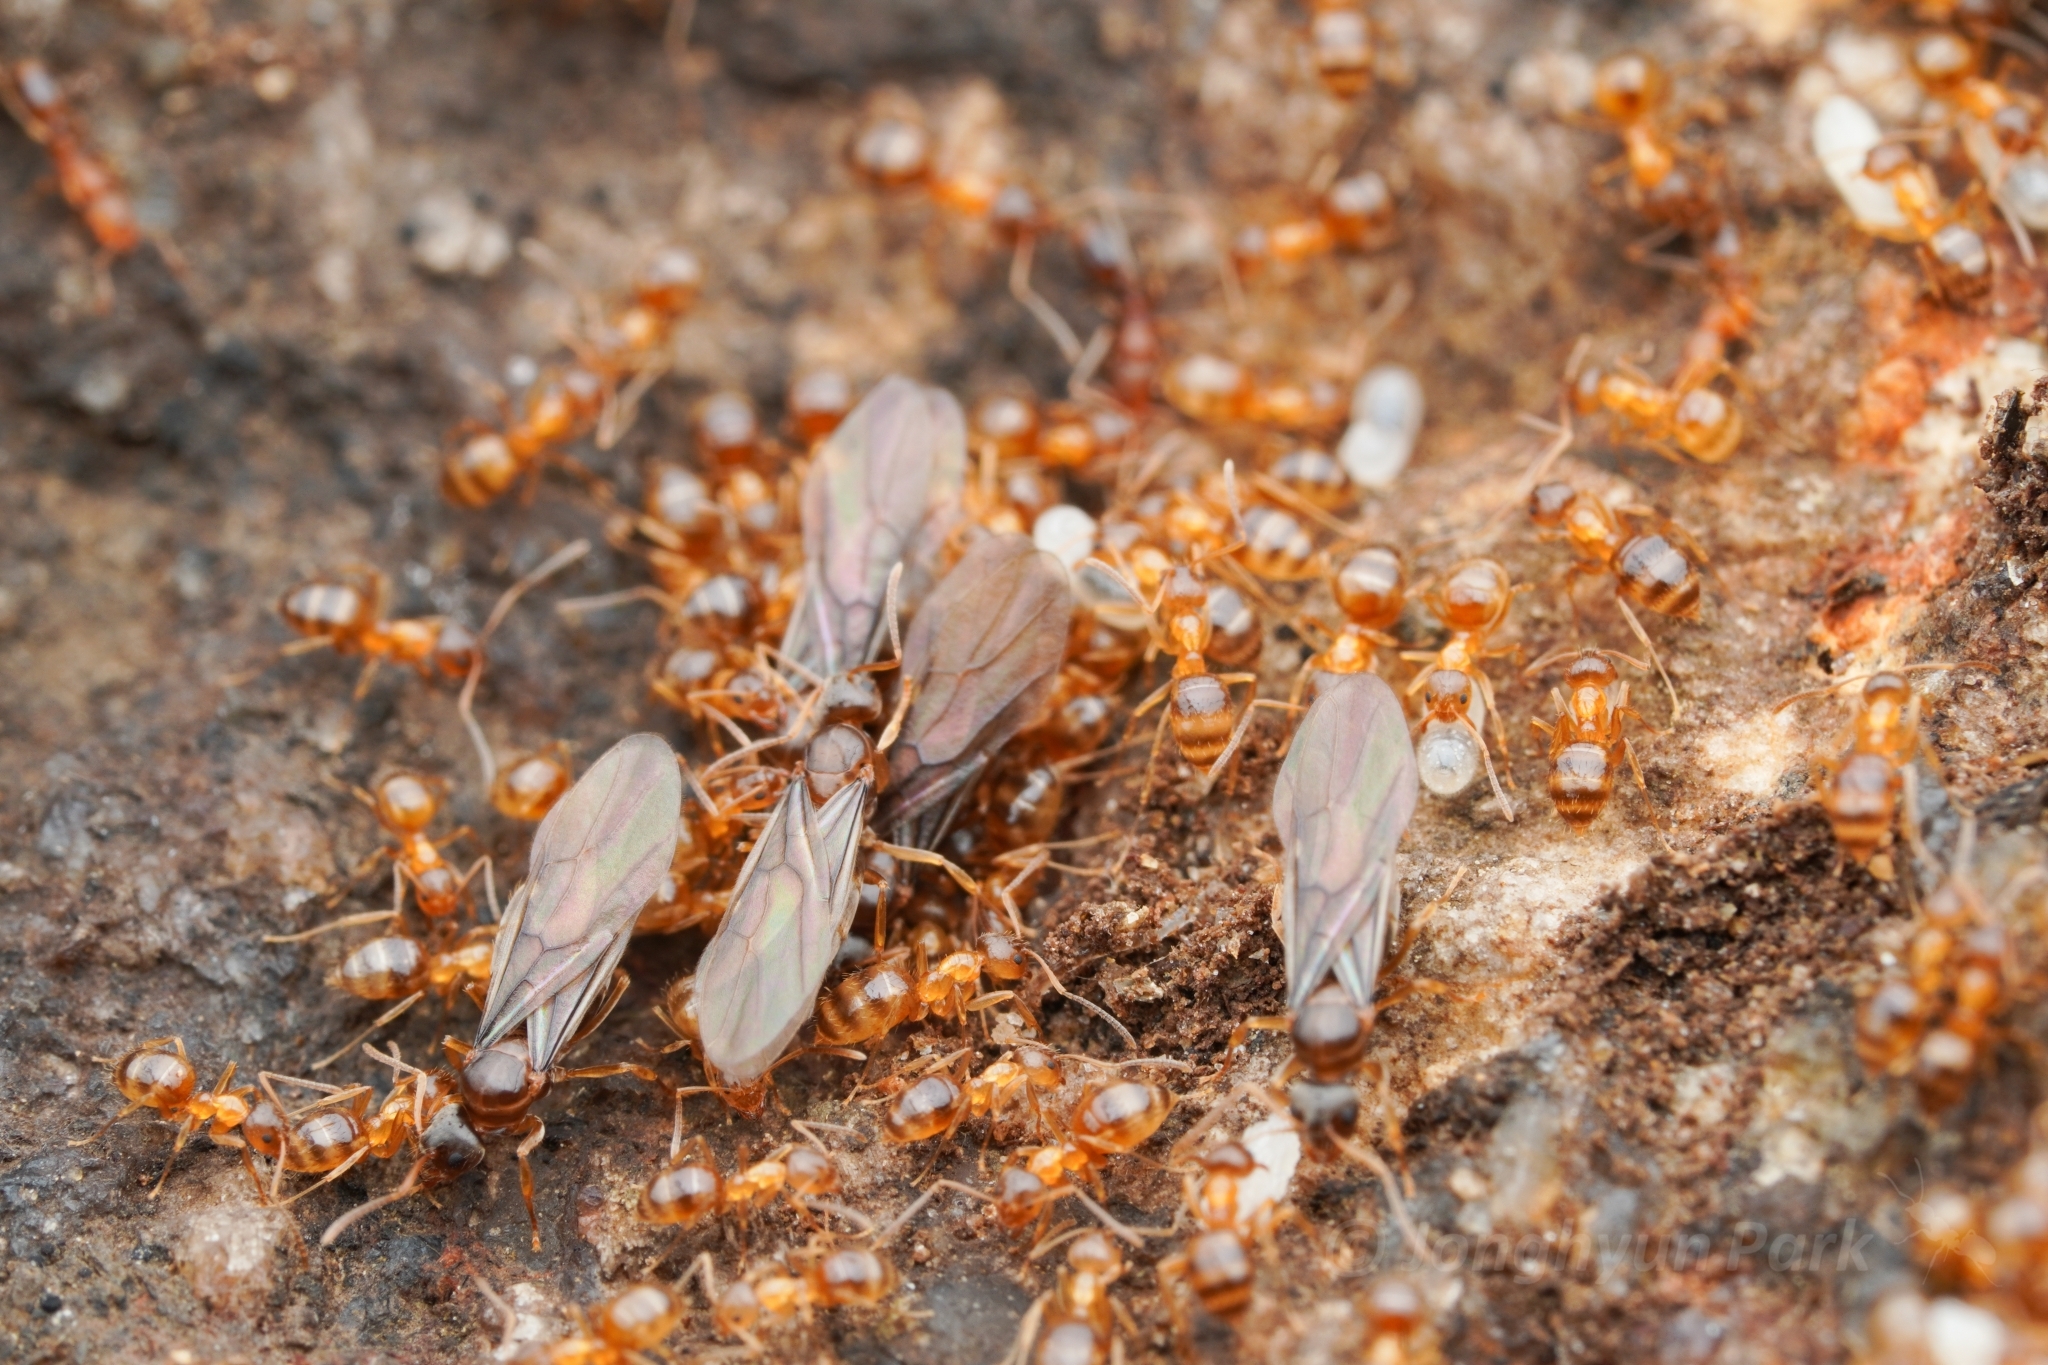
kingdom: Animalia
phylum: Arthropoda
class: Insecta
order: Hymenoptera
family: Formicidae
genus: Paratrechina
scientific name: Paratrechina flavipes
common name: Eastern asian formicine ant
